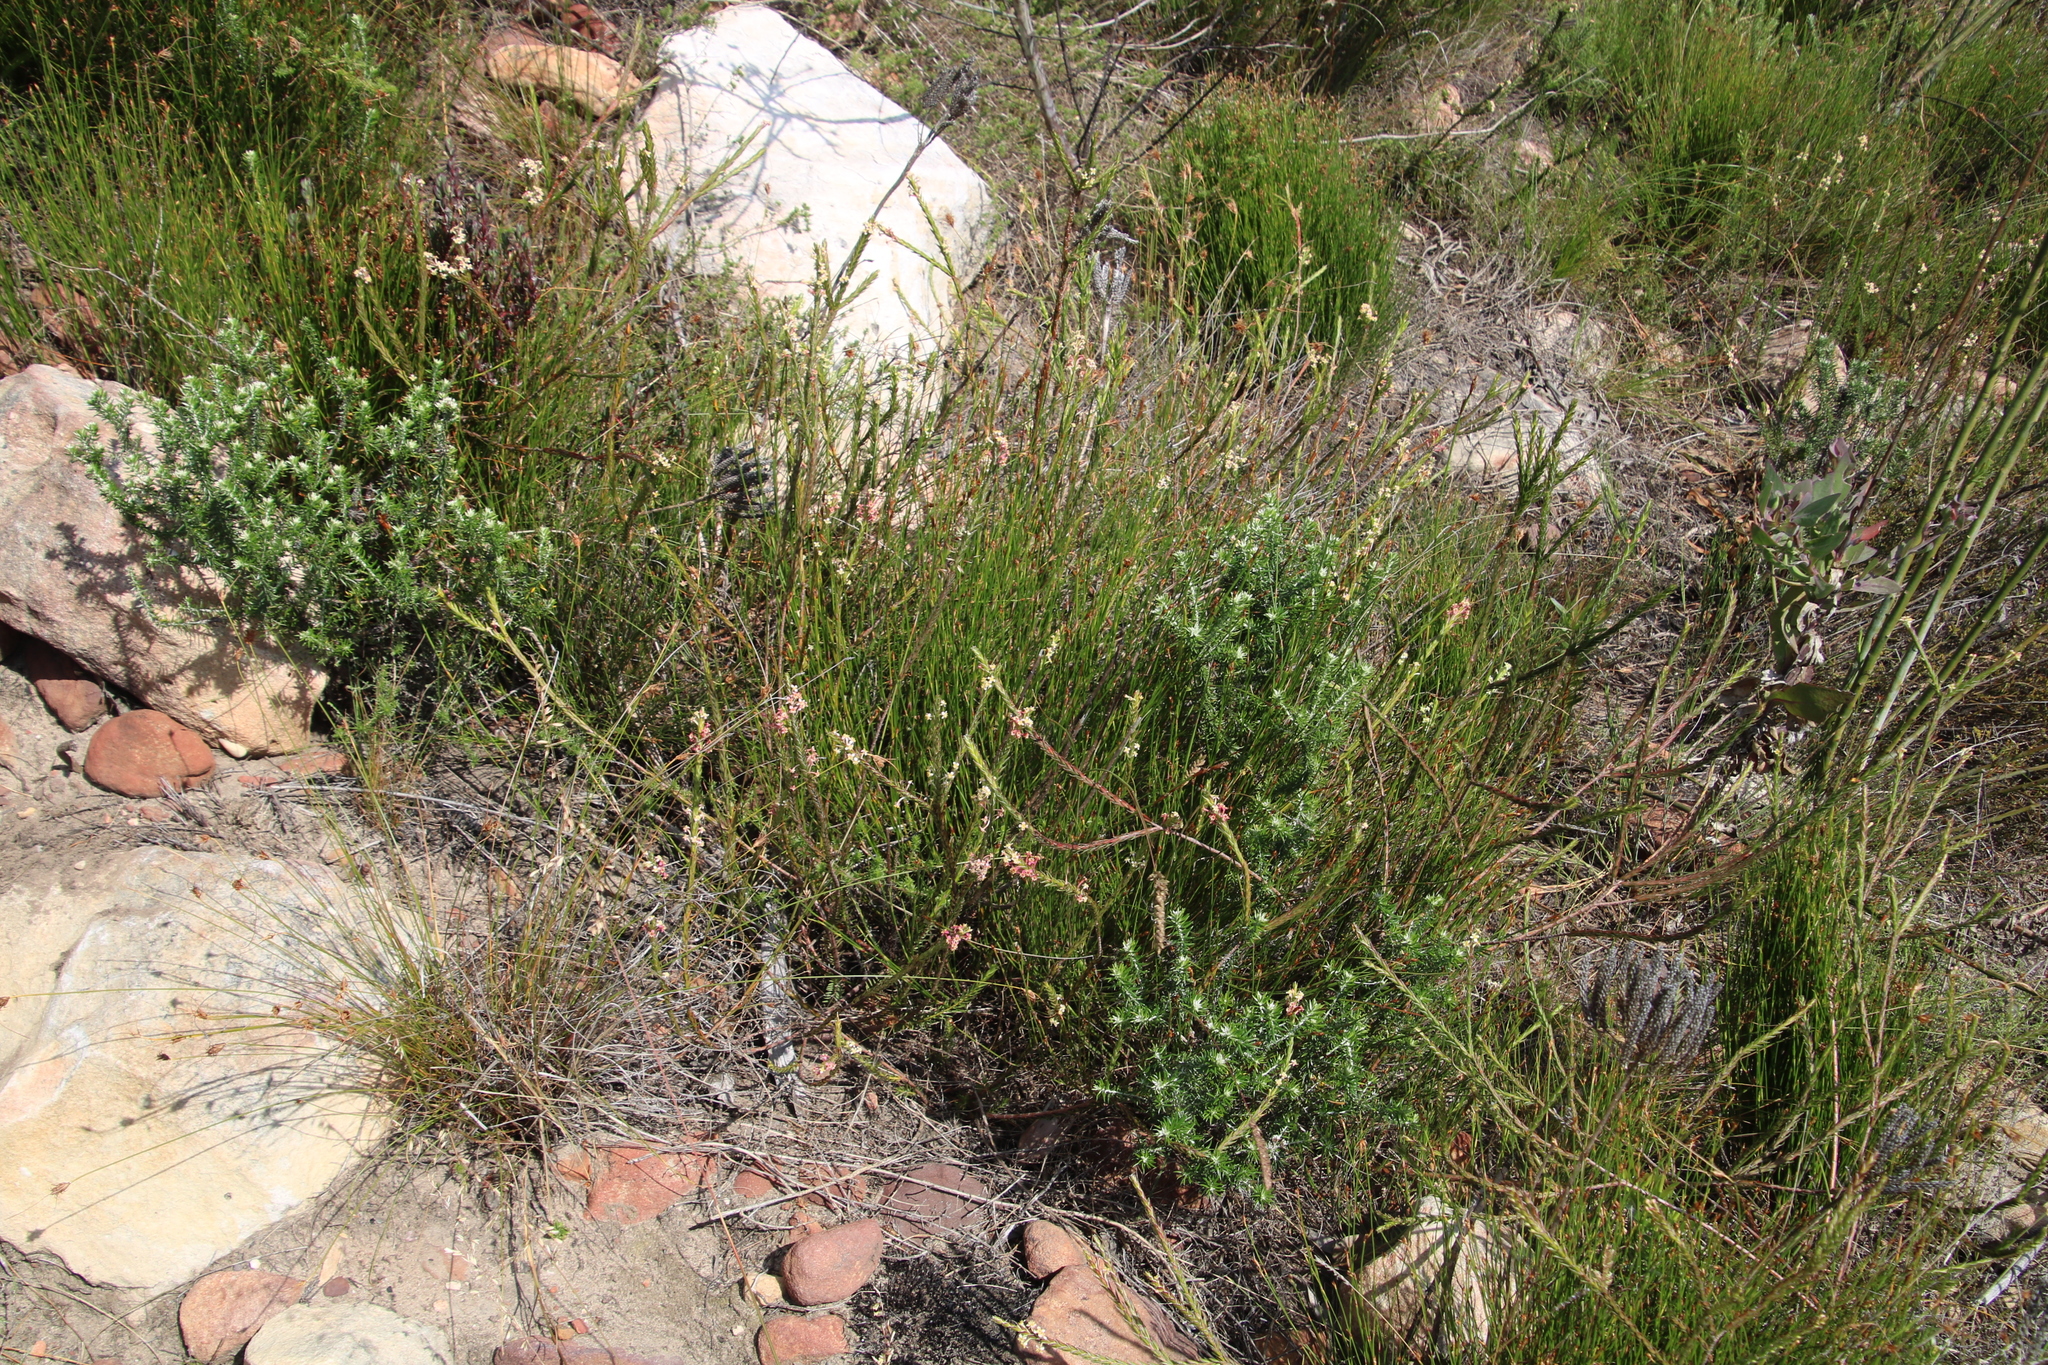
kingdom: Plantae
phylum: Tracheophyta
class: Magnoliopsida
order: Malvales
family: Thymelaeaceae
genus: Struthiola
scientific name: Struthiola ciliata
